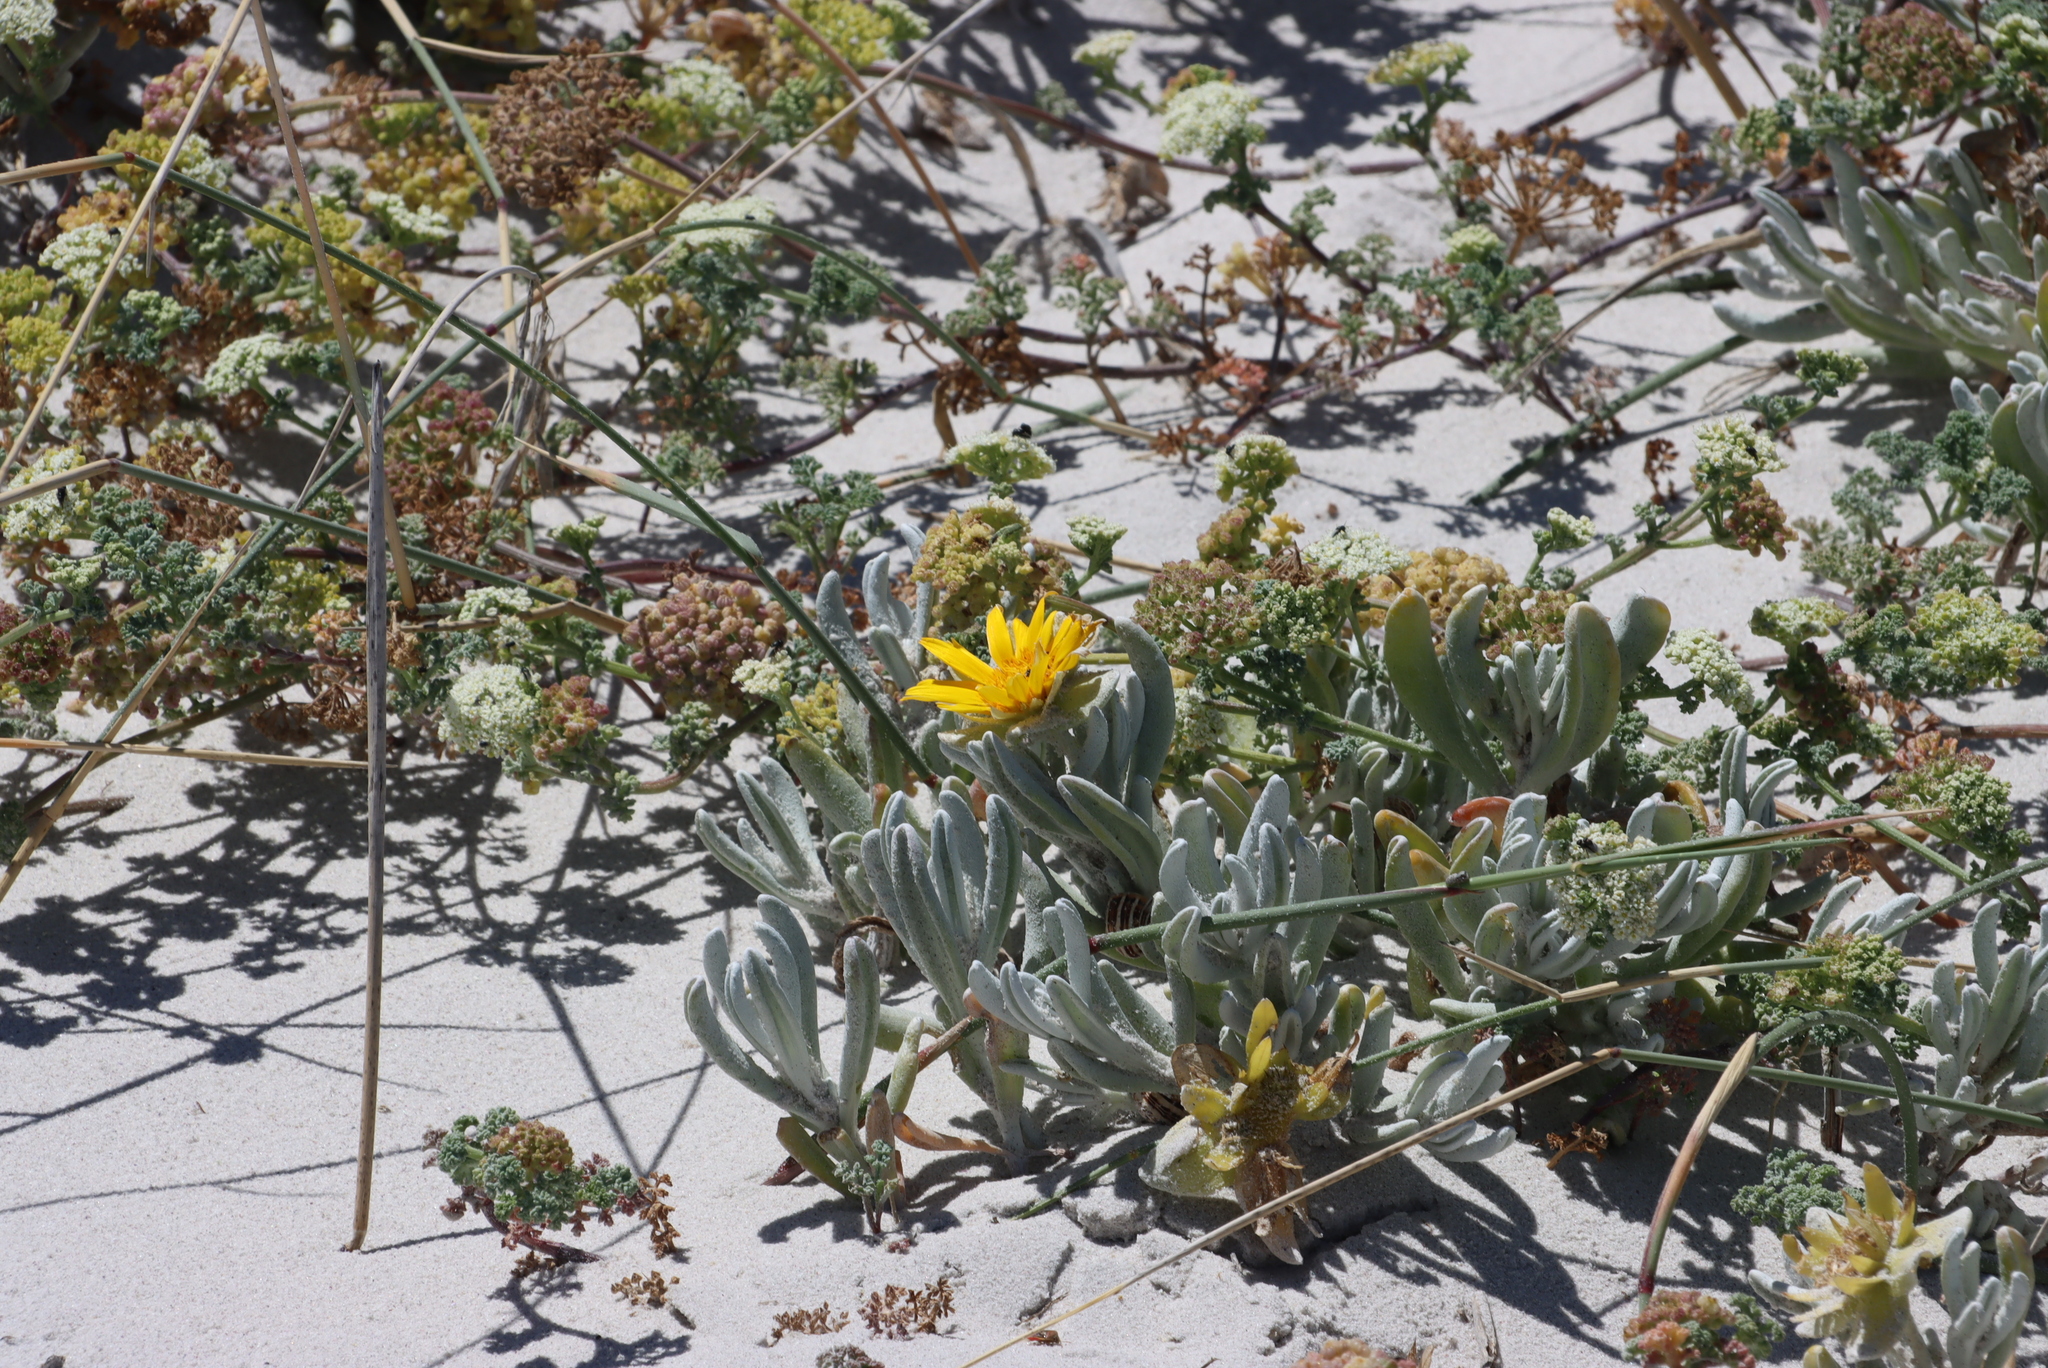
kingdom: Plantae
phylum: Tracheophyta
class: Magnoliopsida
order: Asterales
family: Asteraceae
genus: Didelta
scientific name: Didelta carnosa
